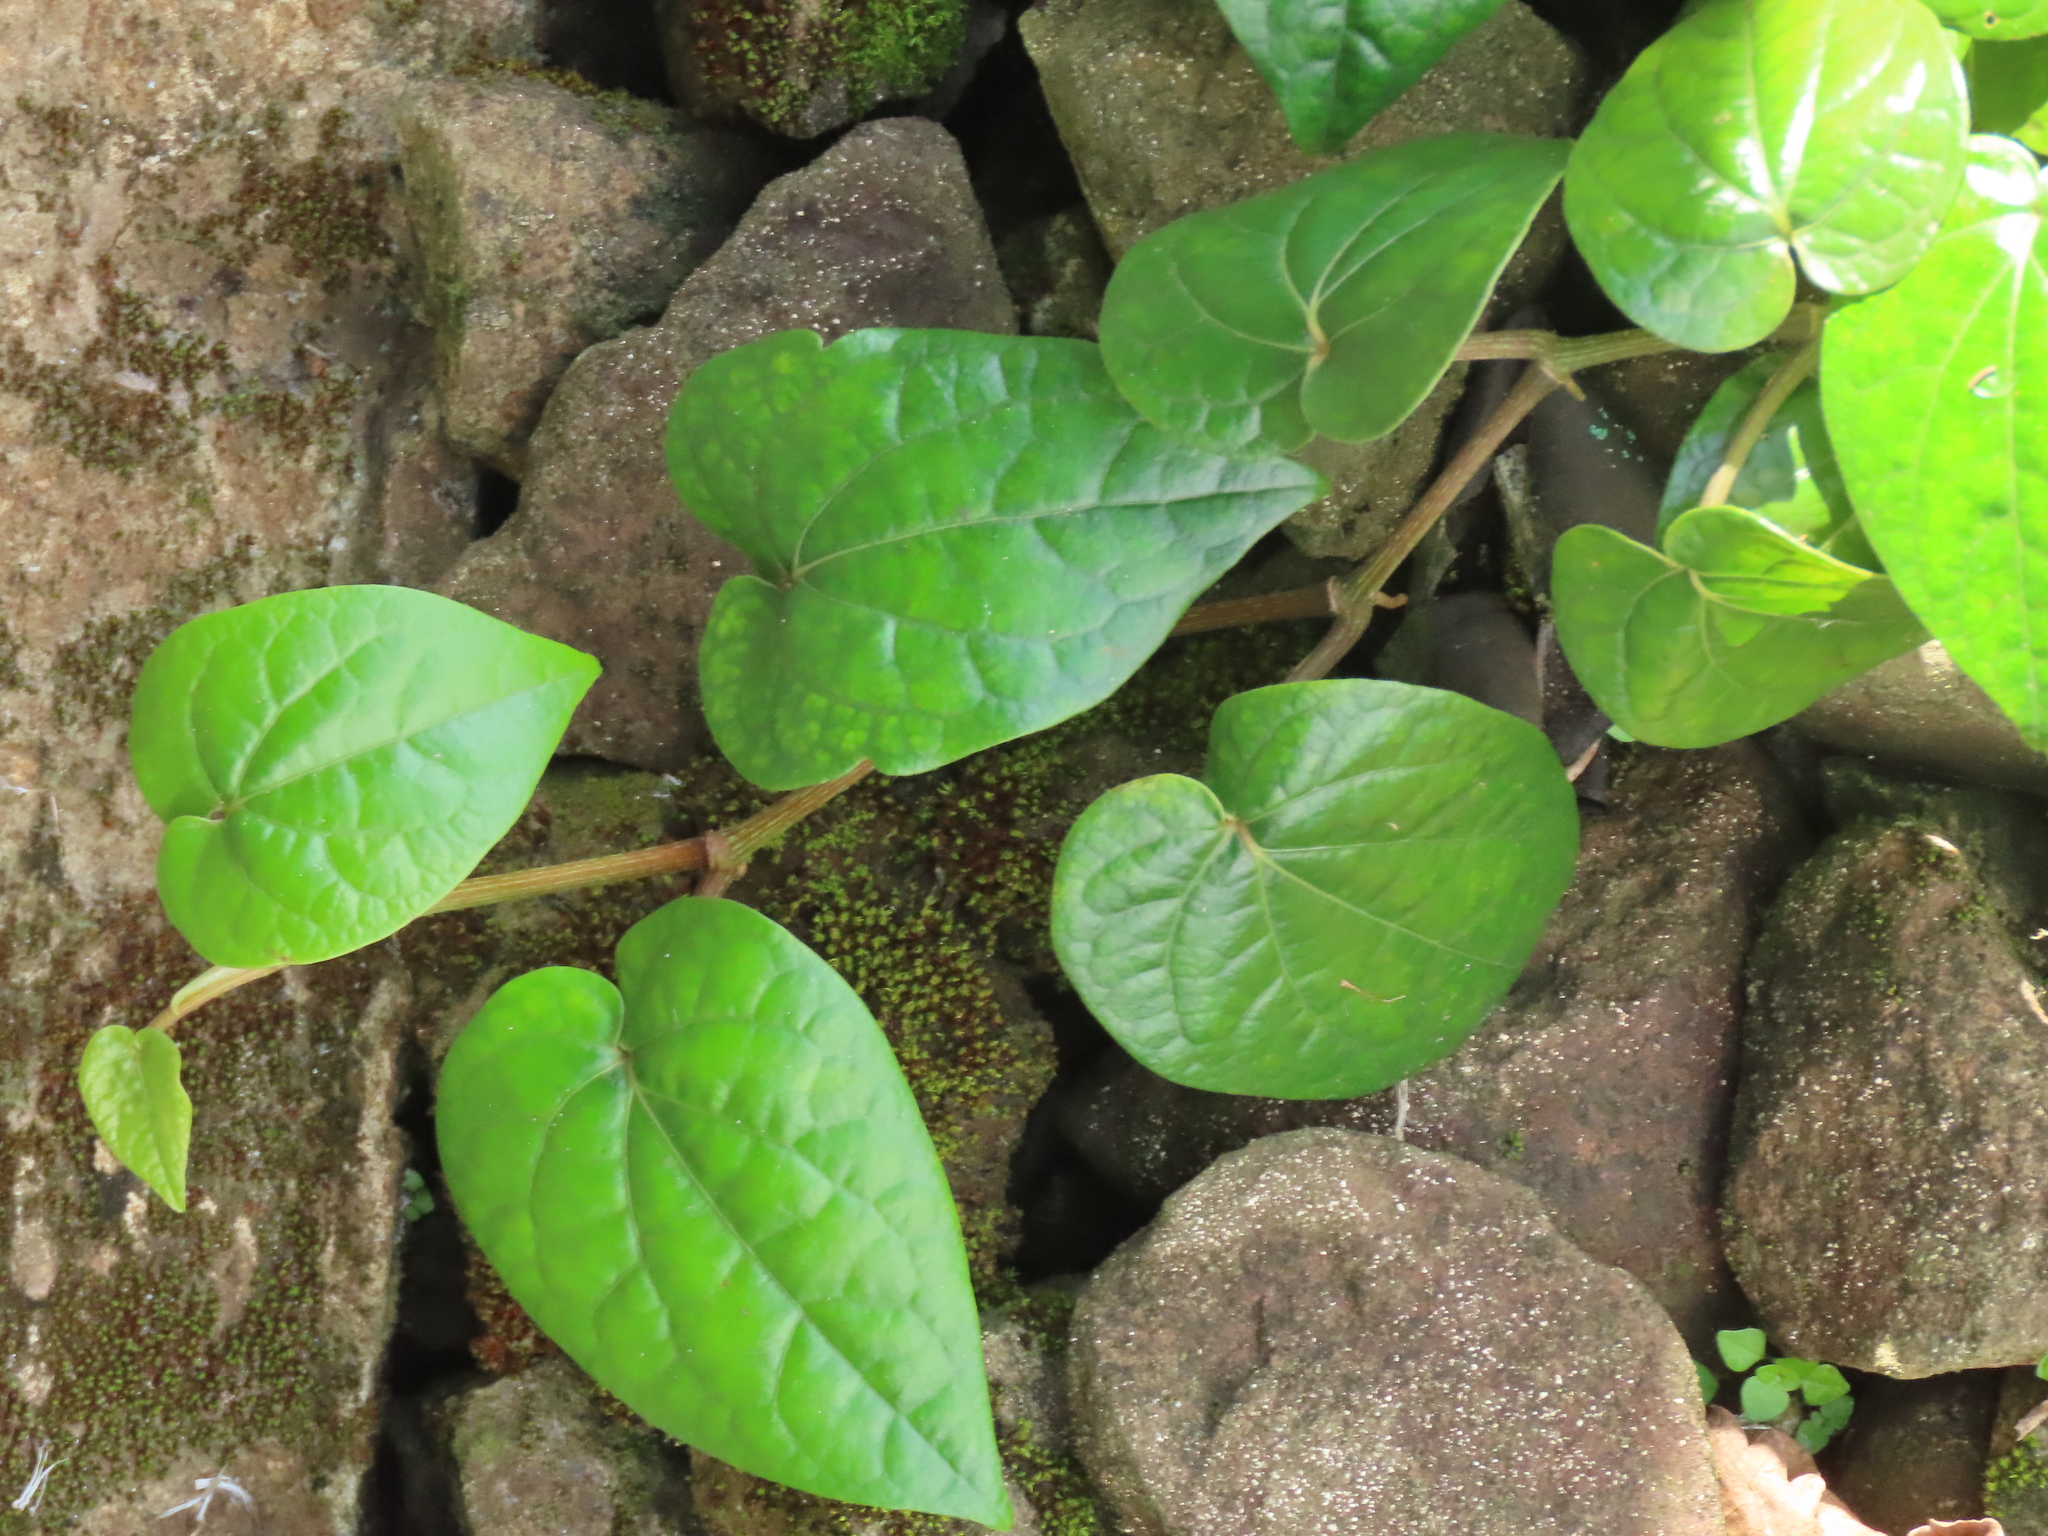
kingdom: Plantae
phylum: Tracheophyta
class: Magnoliopsida
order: Piperales
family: Piperaceae
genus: Piper
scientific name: Piper betle
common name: Betel pepper
